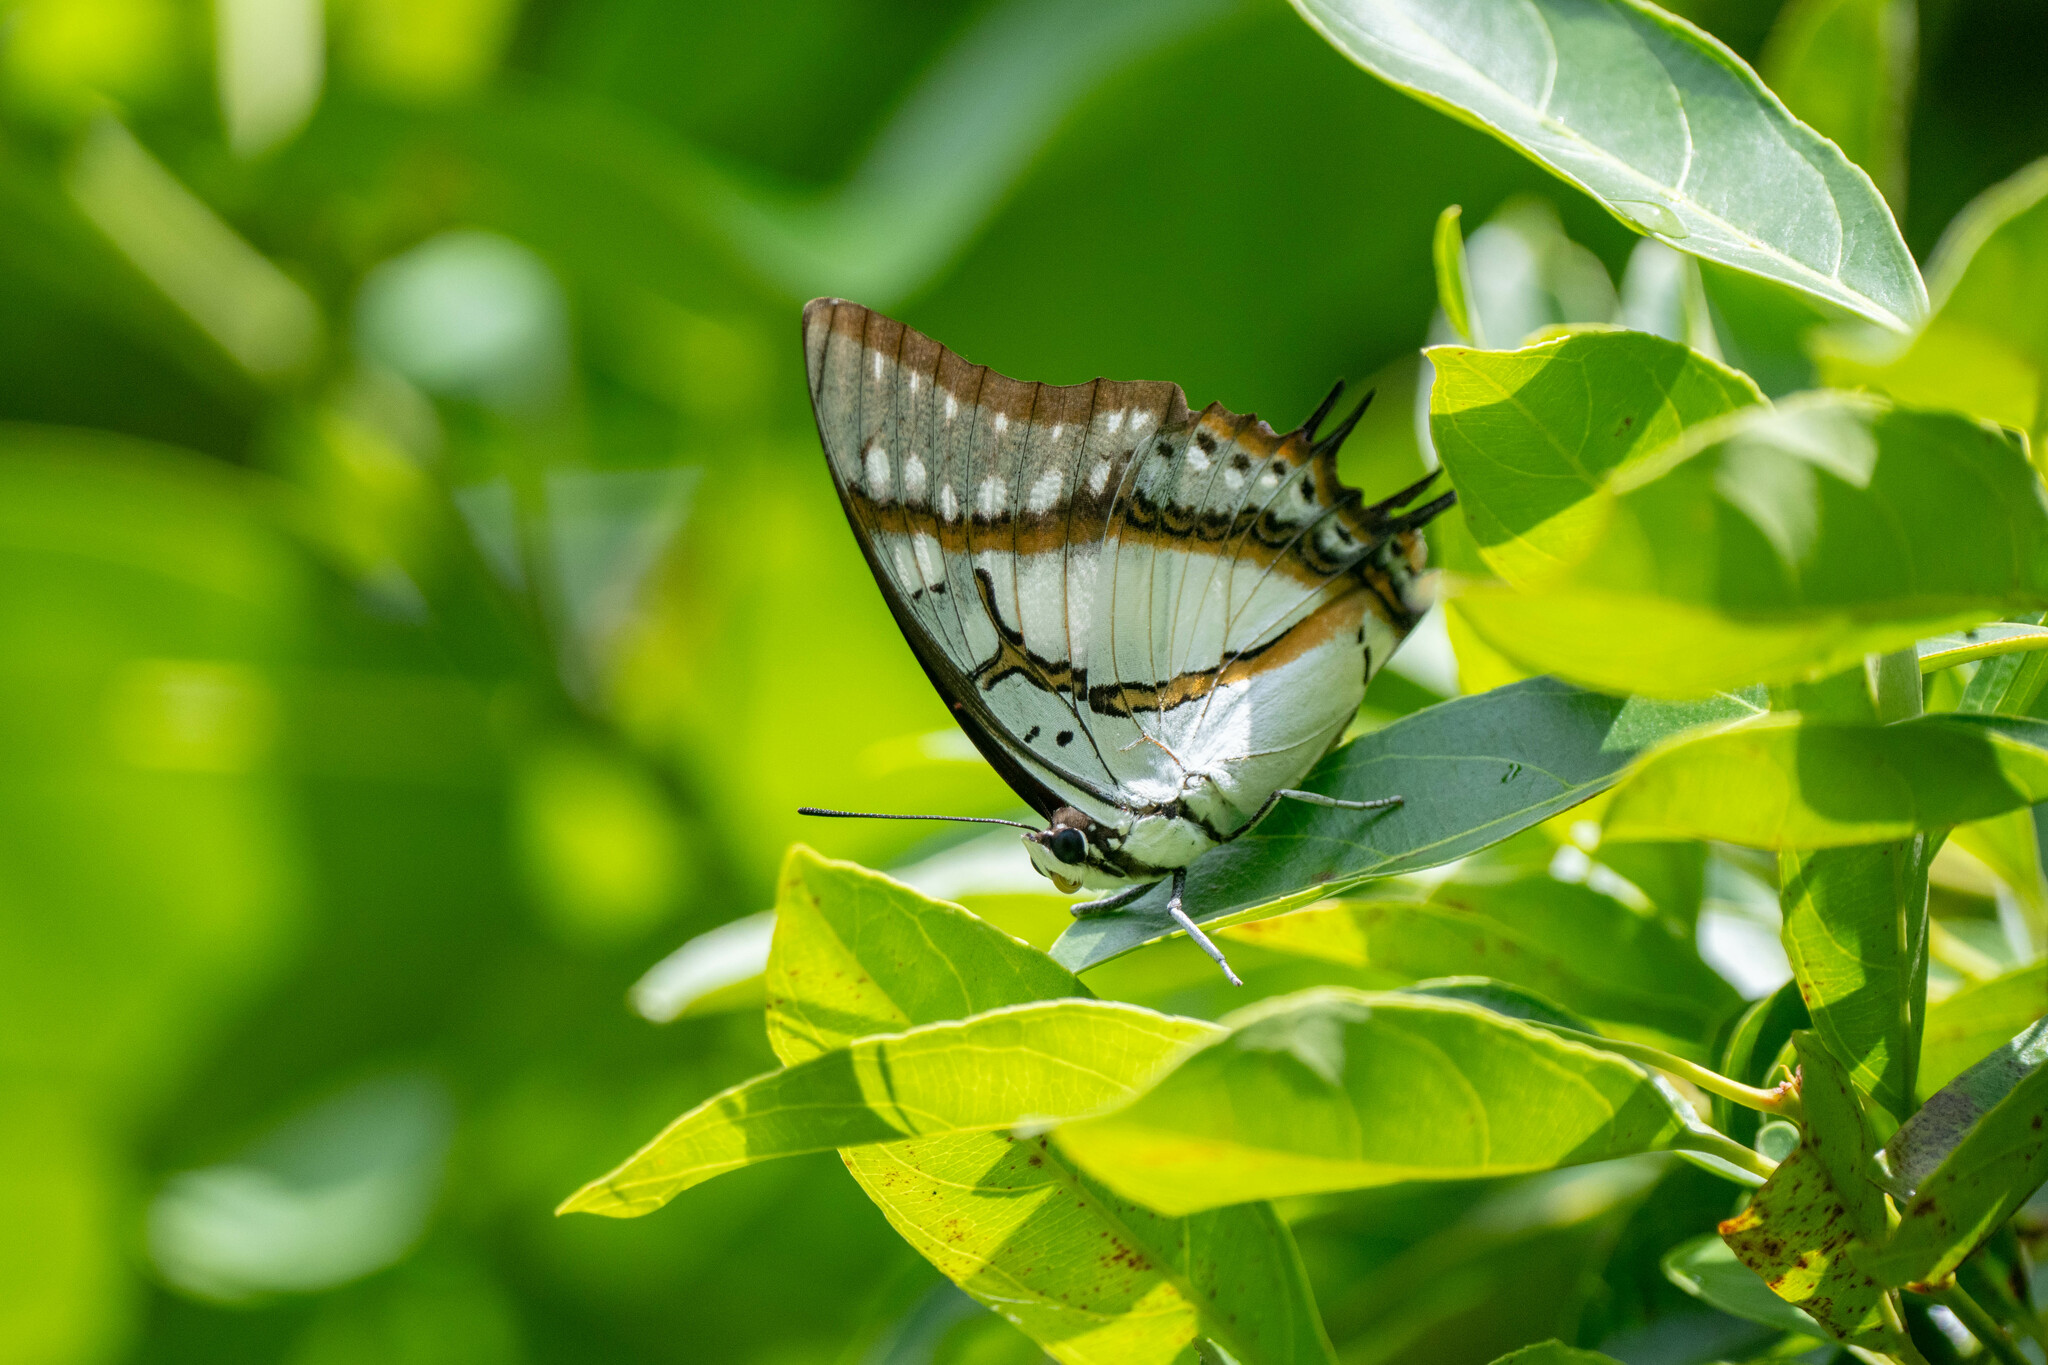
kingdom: Animalia
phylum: Arthropoda
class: Insecta
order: Lepidoptera
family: Nymphalidae
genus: Polyura
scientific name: Polyura eudamippus
